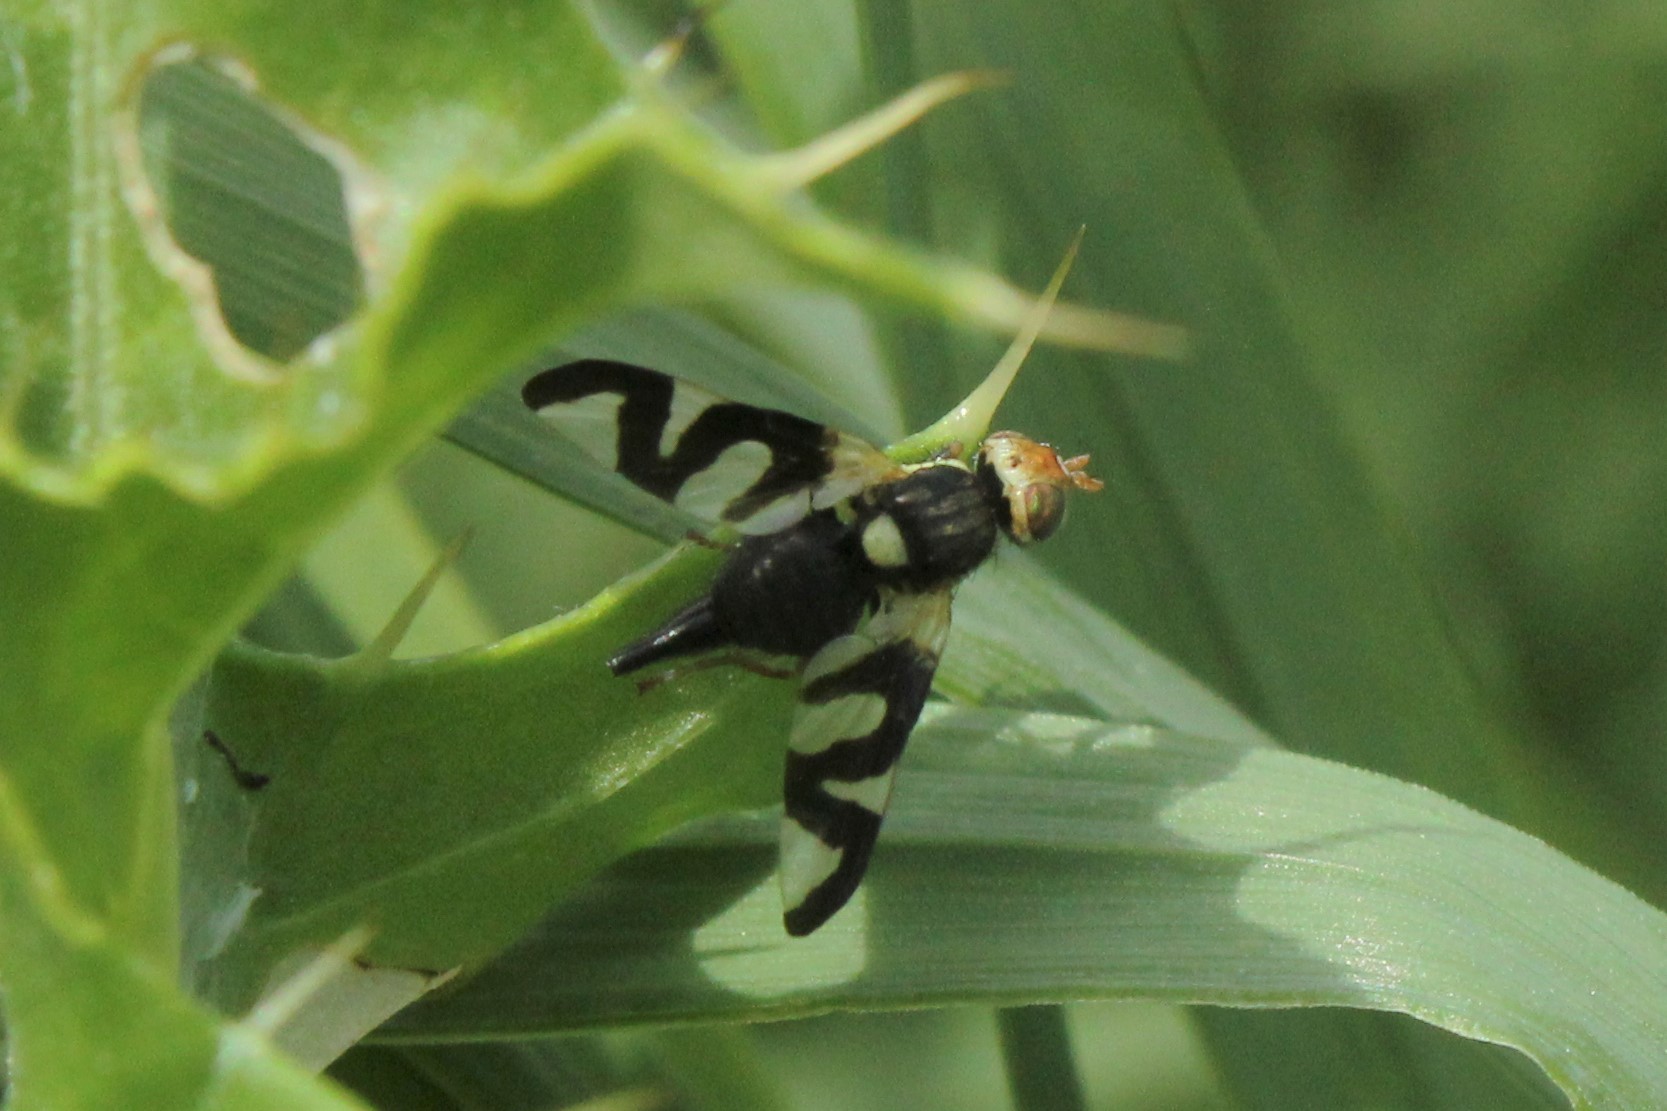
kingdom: Animalia
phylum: Arthropoda
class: Insecta
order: Diptera
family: Tephritidae
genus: Urophora
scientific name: Urophora cardui
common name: Fruit fly
